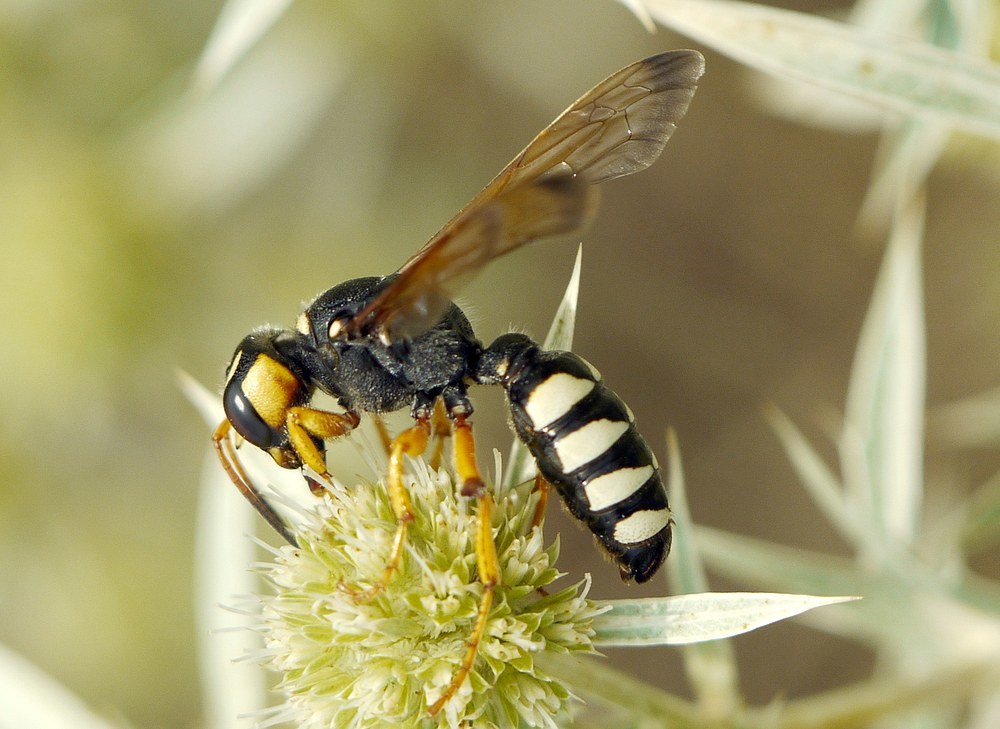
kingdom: Animalia
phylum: Arthropoda
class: Insecta
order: Hymenoptera
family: Crabronidae
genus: Cerceris
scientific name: Cerceris tuberculata
